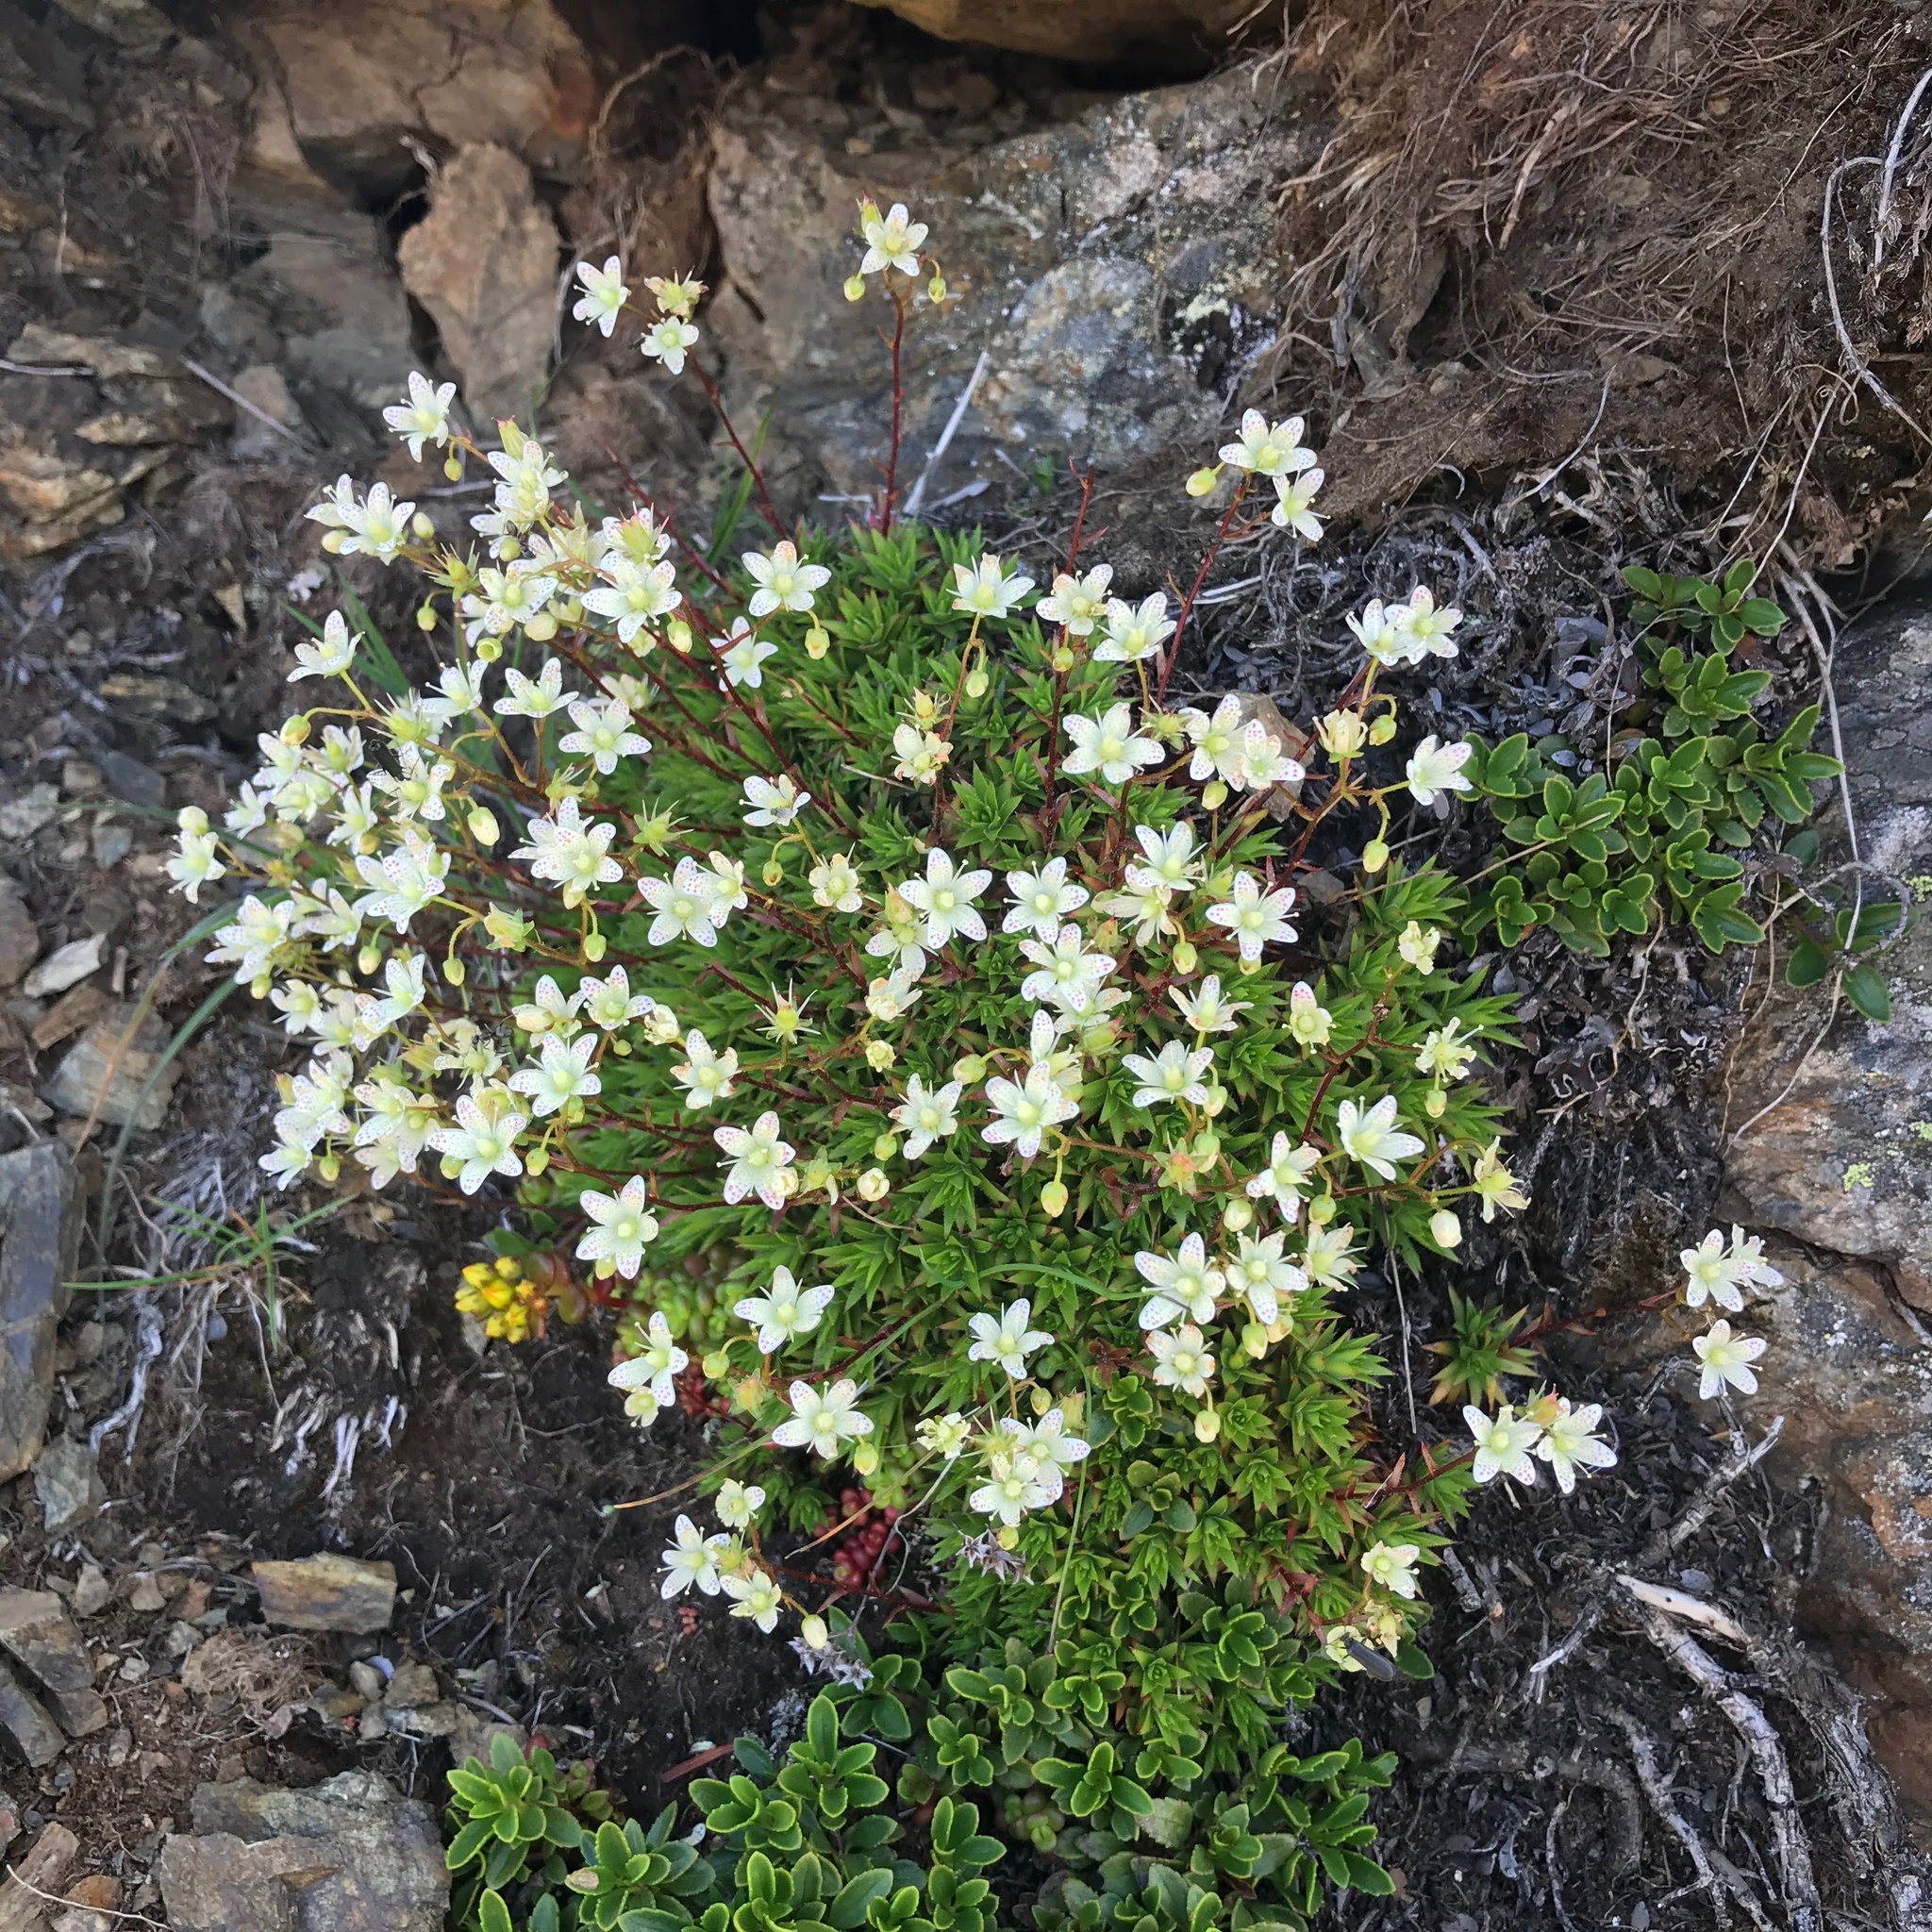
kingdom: Plantae
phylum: Tracheophyta
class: Magnoliopsida
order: Saxifragales
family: Saxifragaceae
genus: Saxifraga
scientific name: Saxifraga bronchialis
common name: Matted saxifrage
